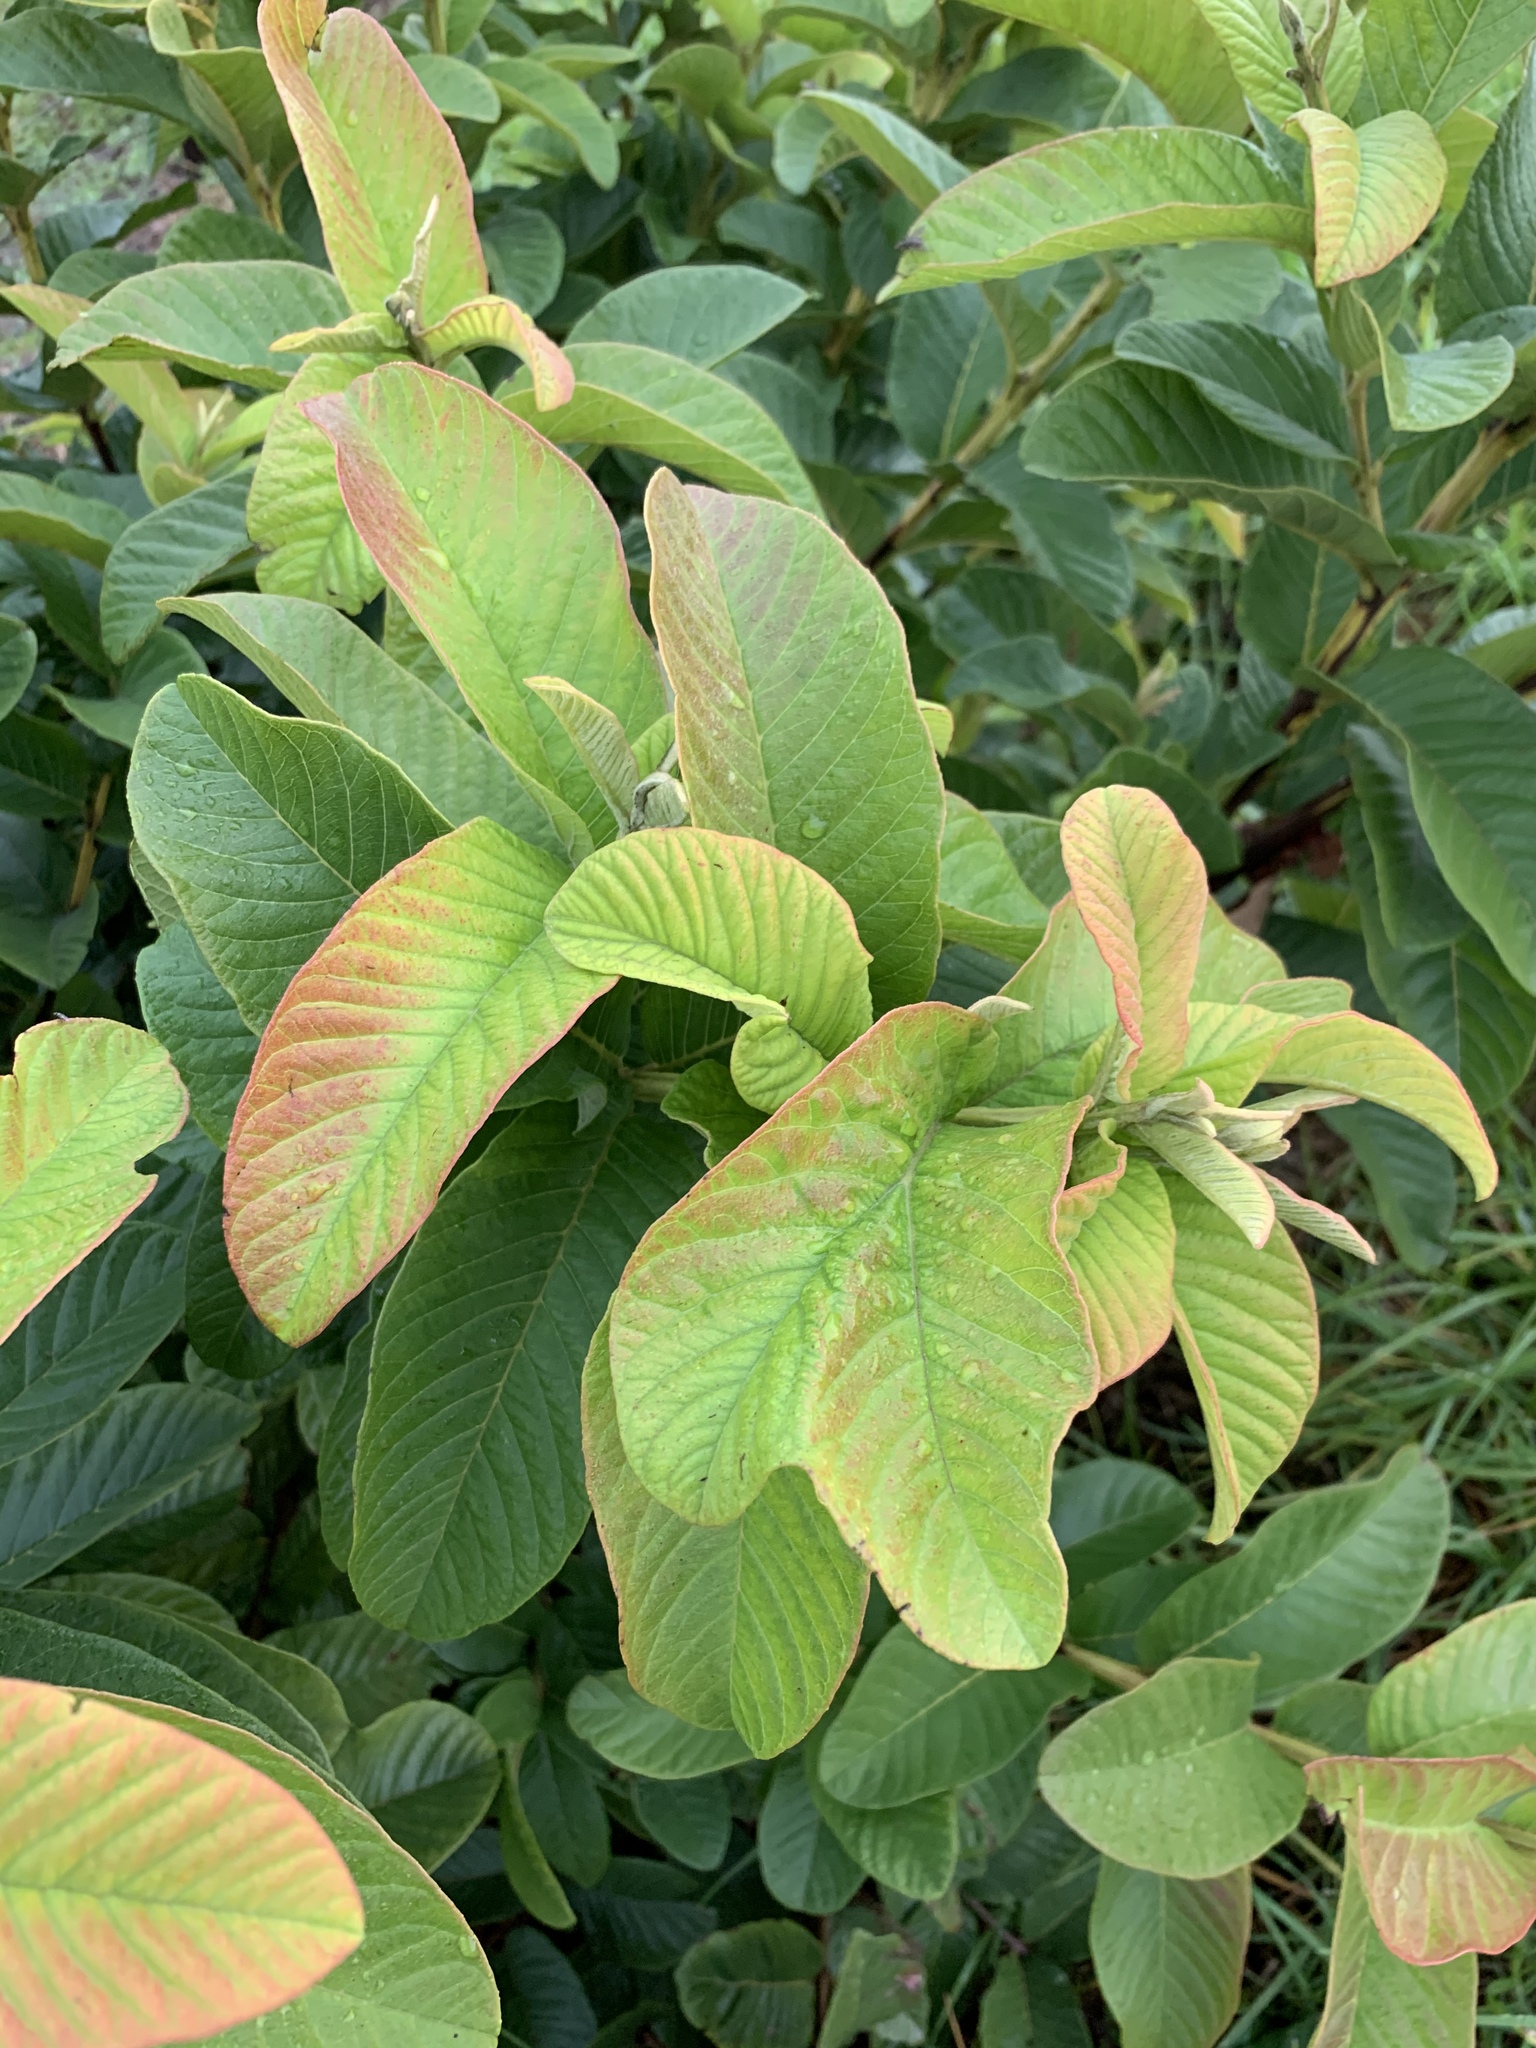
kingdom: Plantae
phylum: Tracheophyta
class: Magnoliopsida
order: Myrtales
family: Myrtaceae
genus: Psidium
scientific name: Psidium guajava
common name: Guava
